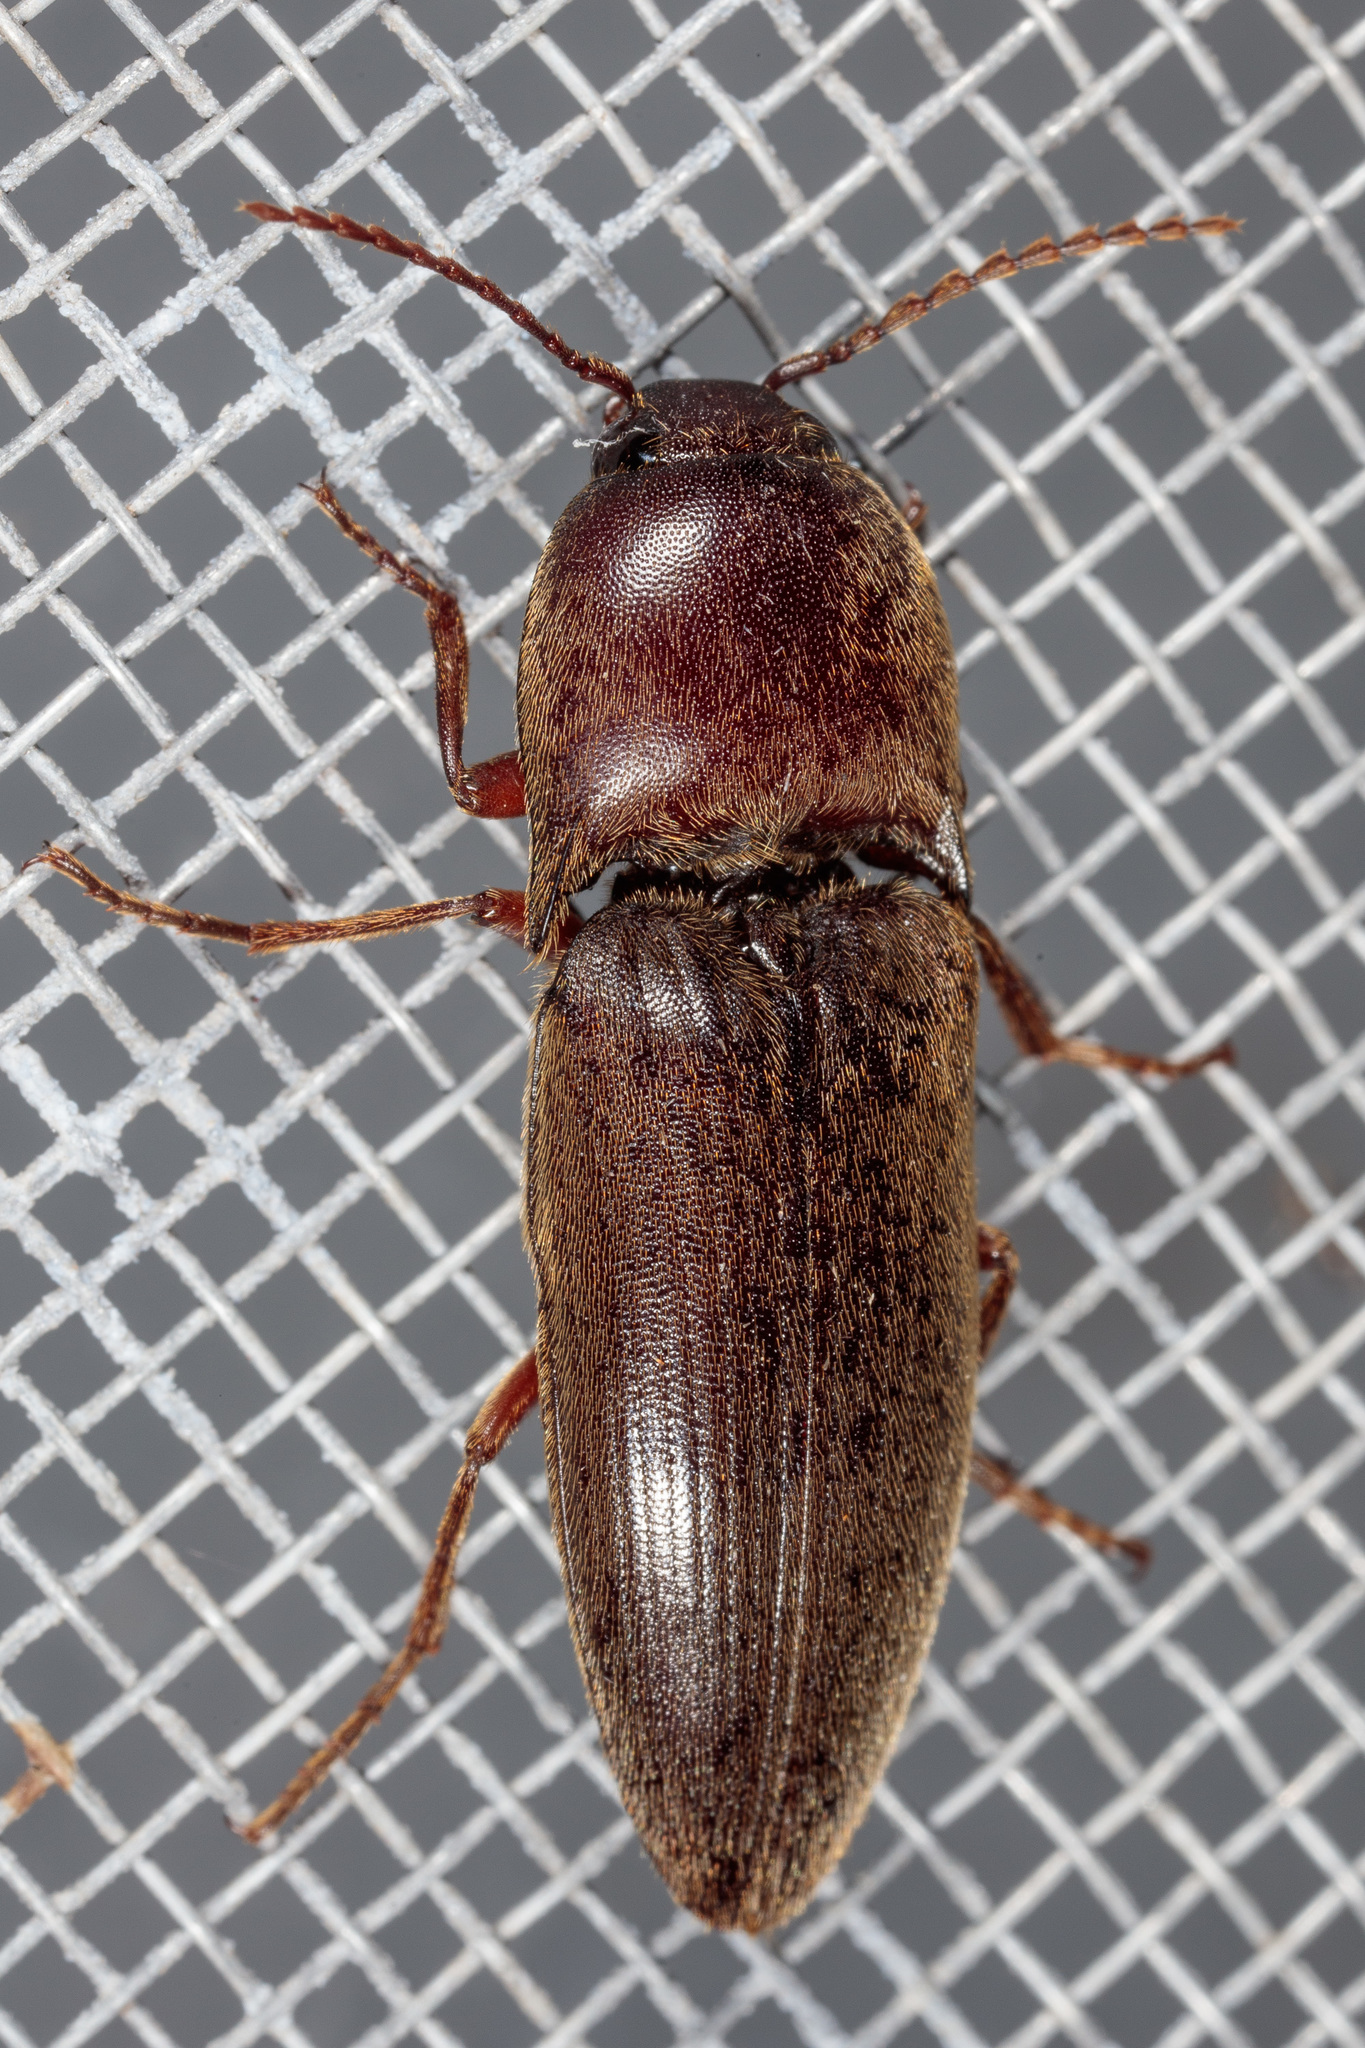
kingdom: Animalia
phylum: Arthropoda
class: Insecta
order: Coleoptera
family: Elateridae
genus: Diplostethus
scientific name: Diplostethus
